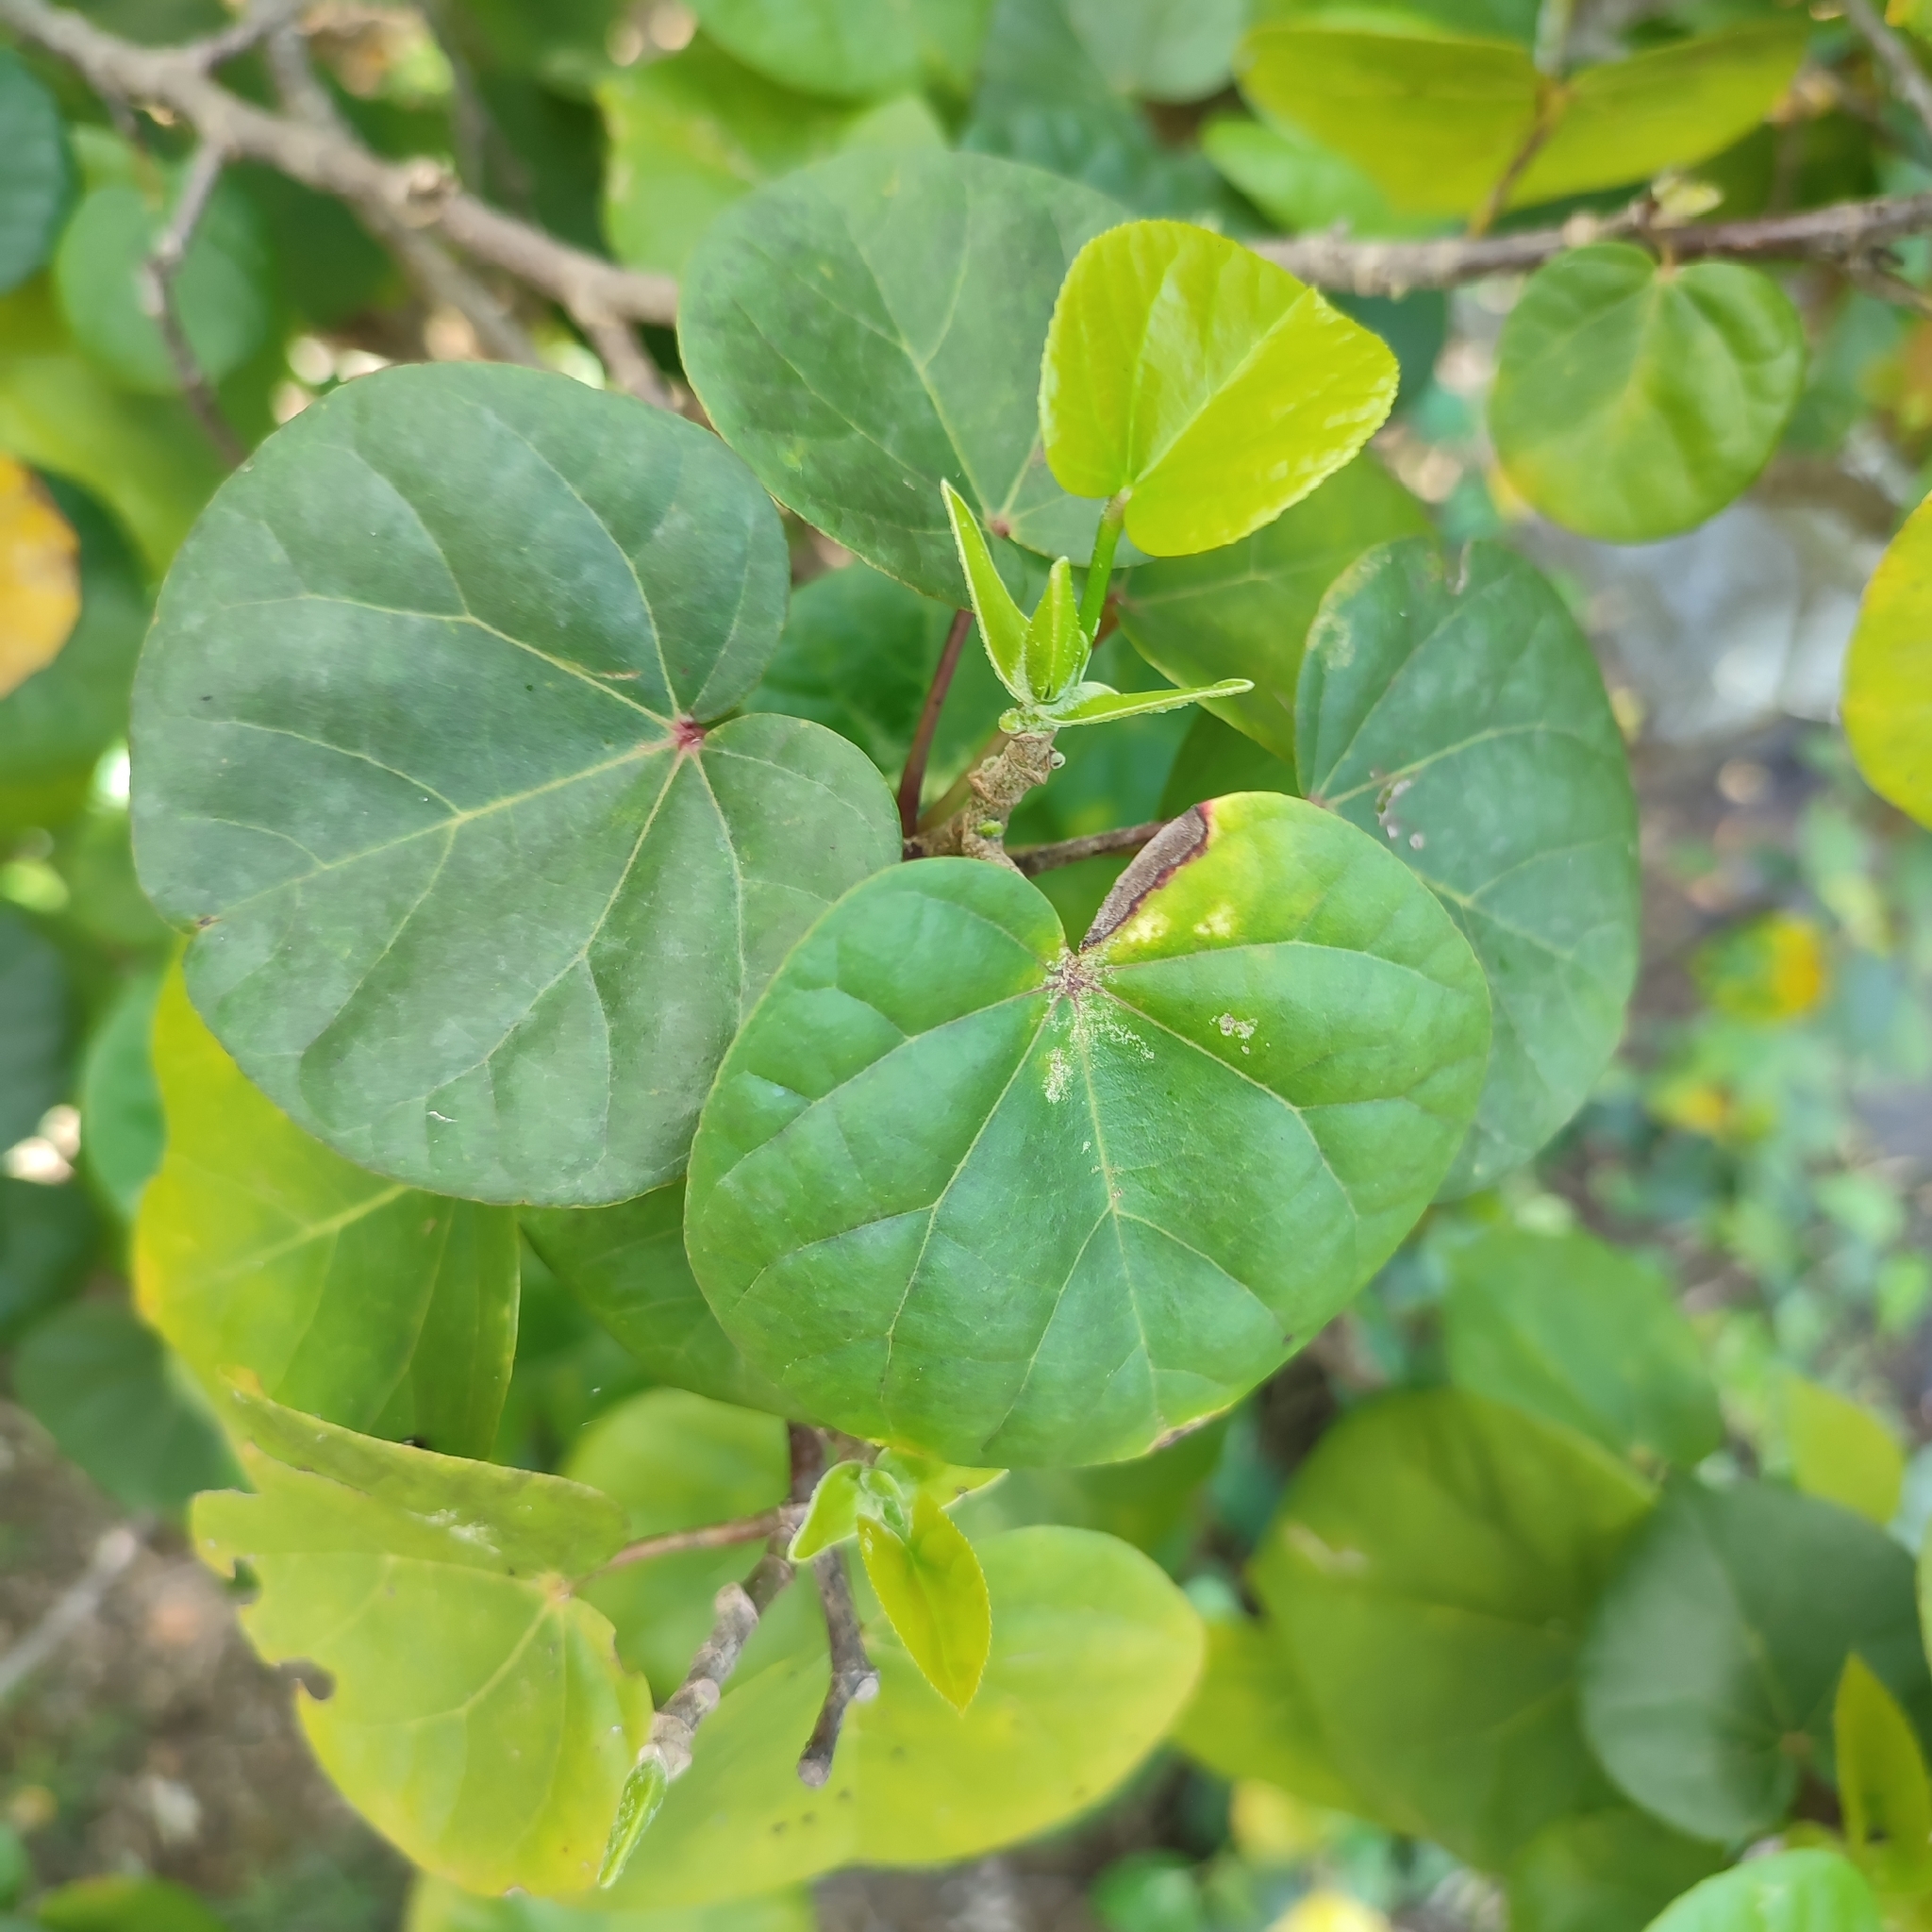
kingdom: Plantae
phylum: Tracheophyta
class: Magnoliopsida
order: Malvales
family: Malvaceae
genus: Talipariti
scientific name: Talipariti tiliaceum
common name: Sea hibiscus
